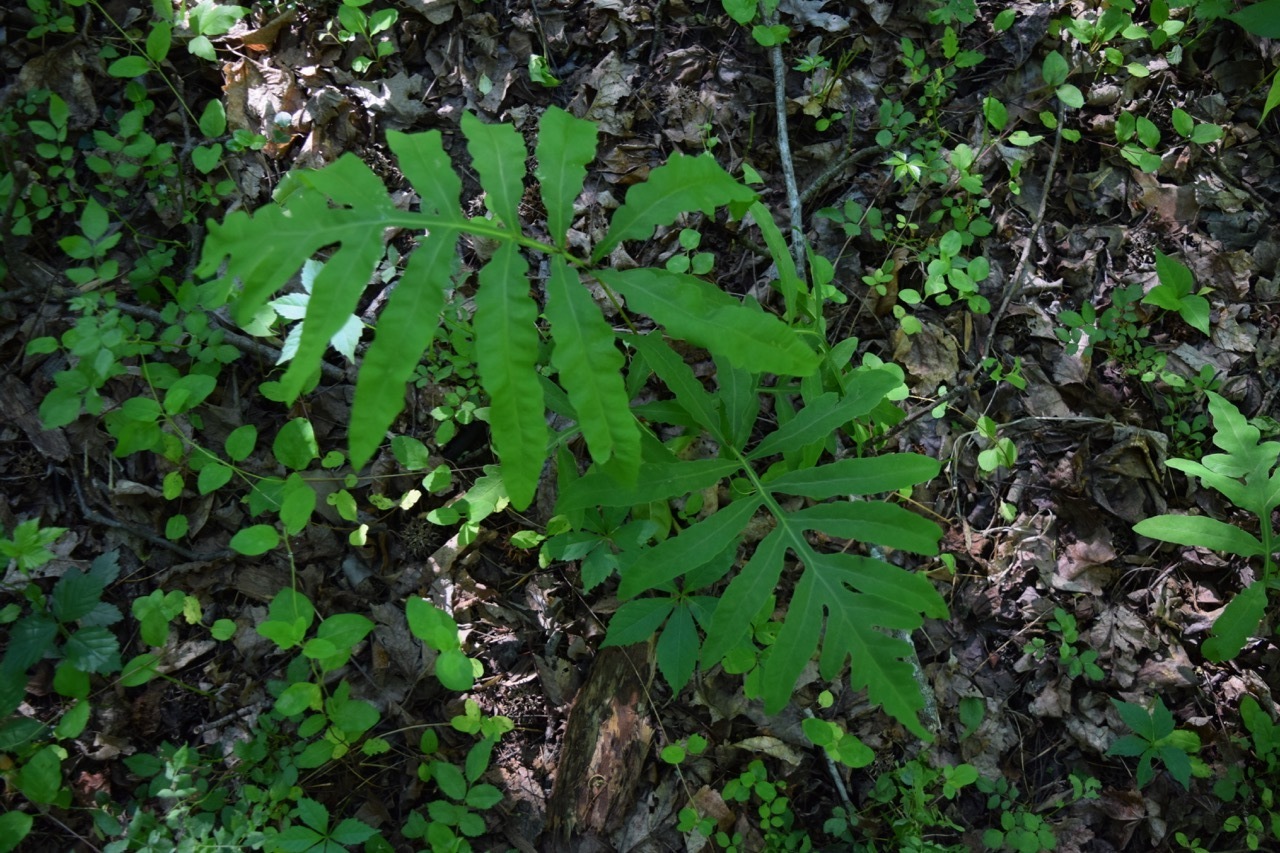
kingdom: Plantae
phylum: Tracheophyta
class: Polypodiopsida
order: Polypodiales
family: Onocleaceae
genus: Onoclea
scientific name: Onoclea sensibilis
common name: Sensitive fern
